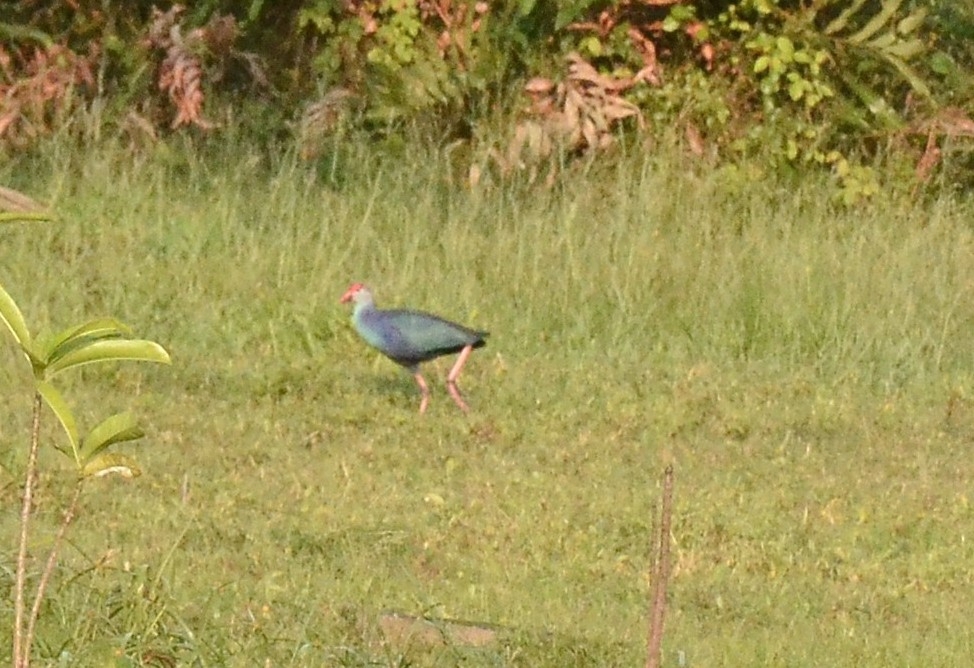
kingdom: Animalia
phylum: Chordata
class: Aves
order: Gruiformes
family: Rallidae
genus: Porphyrio
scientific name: Porphyrio porphyrio
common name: Purple swamphen
